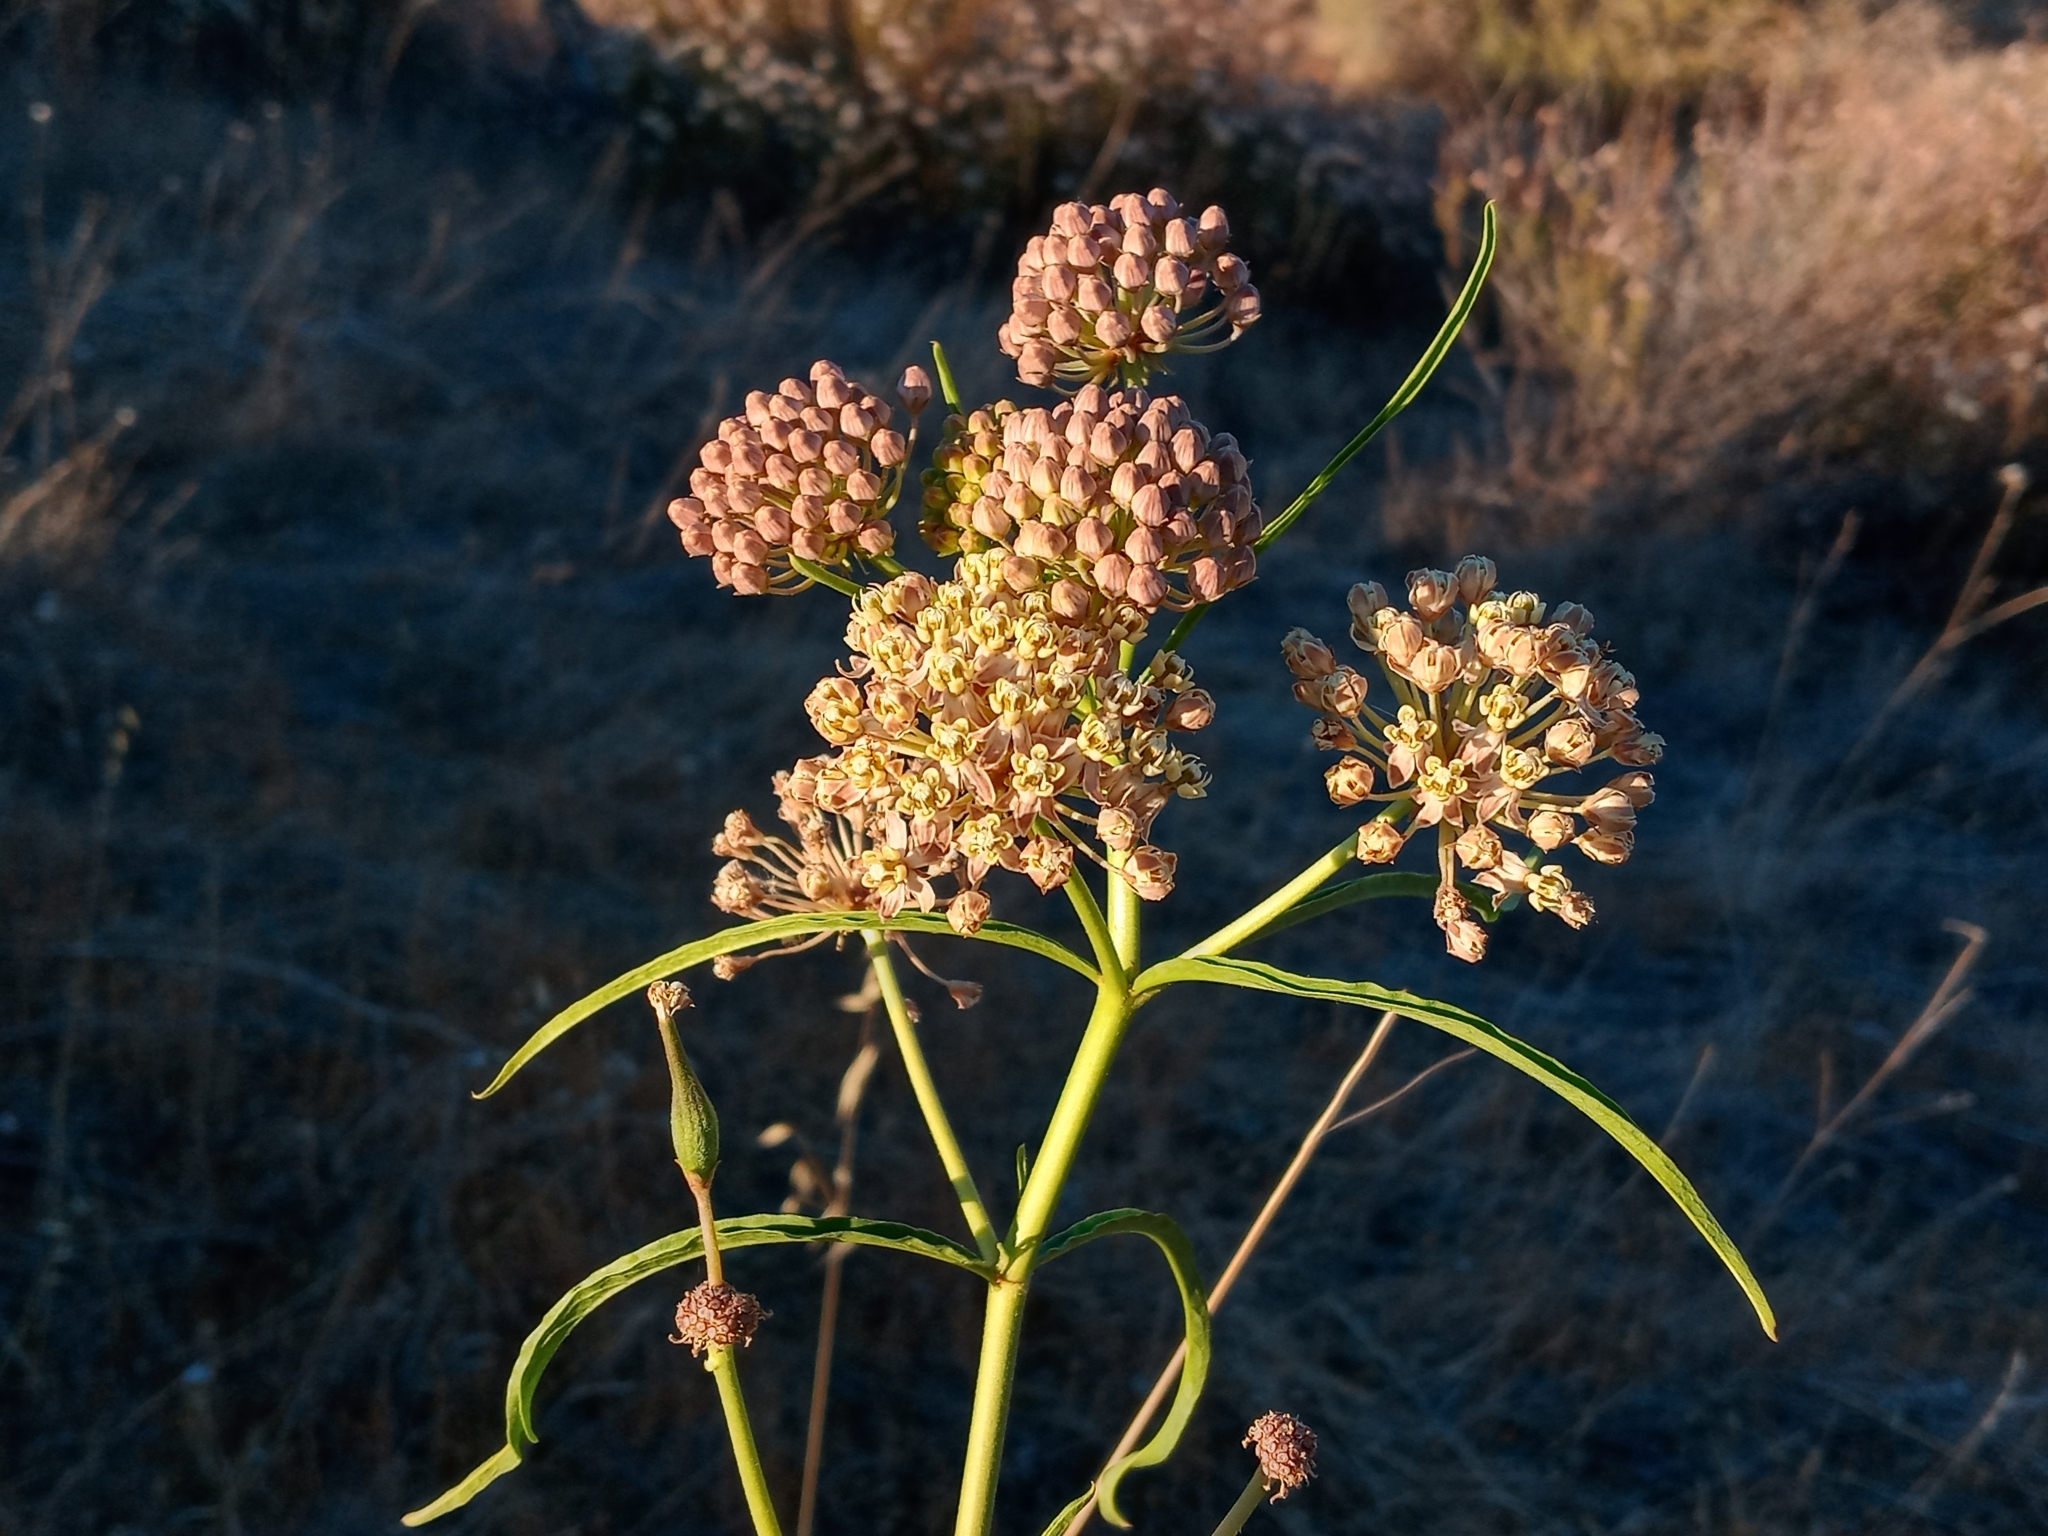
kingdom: Plantae
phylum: Tracheophyta
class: Magnoliopsida
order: Gentianales
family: Apocynaceae
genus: Asclepias
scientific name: Asclepias fascicularis
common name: Mexican milkweed
